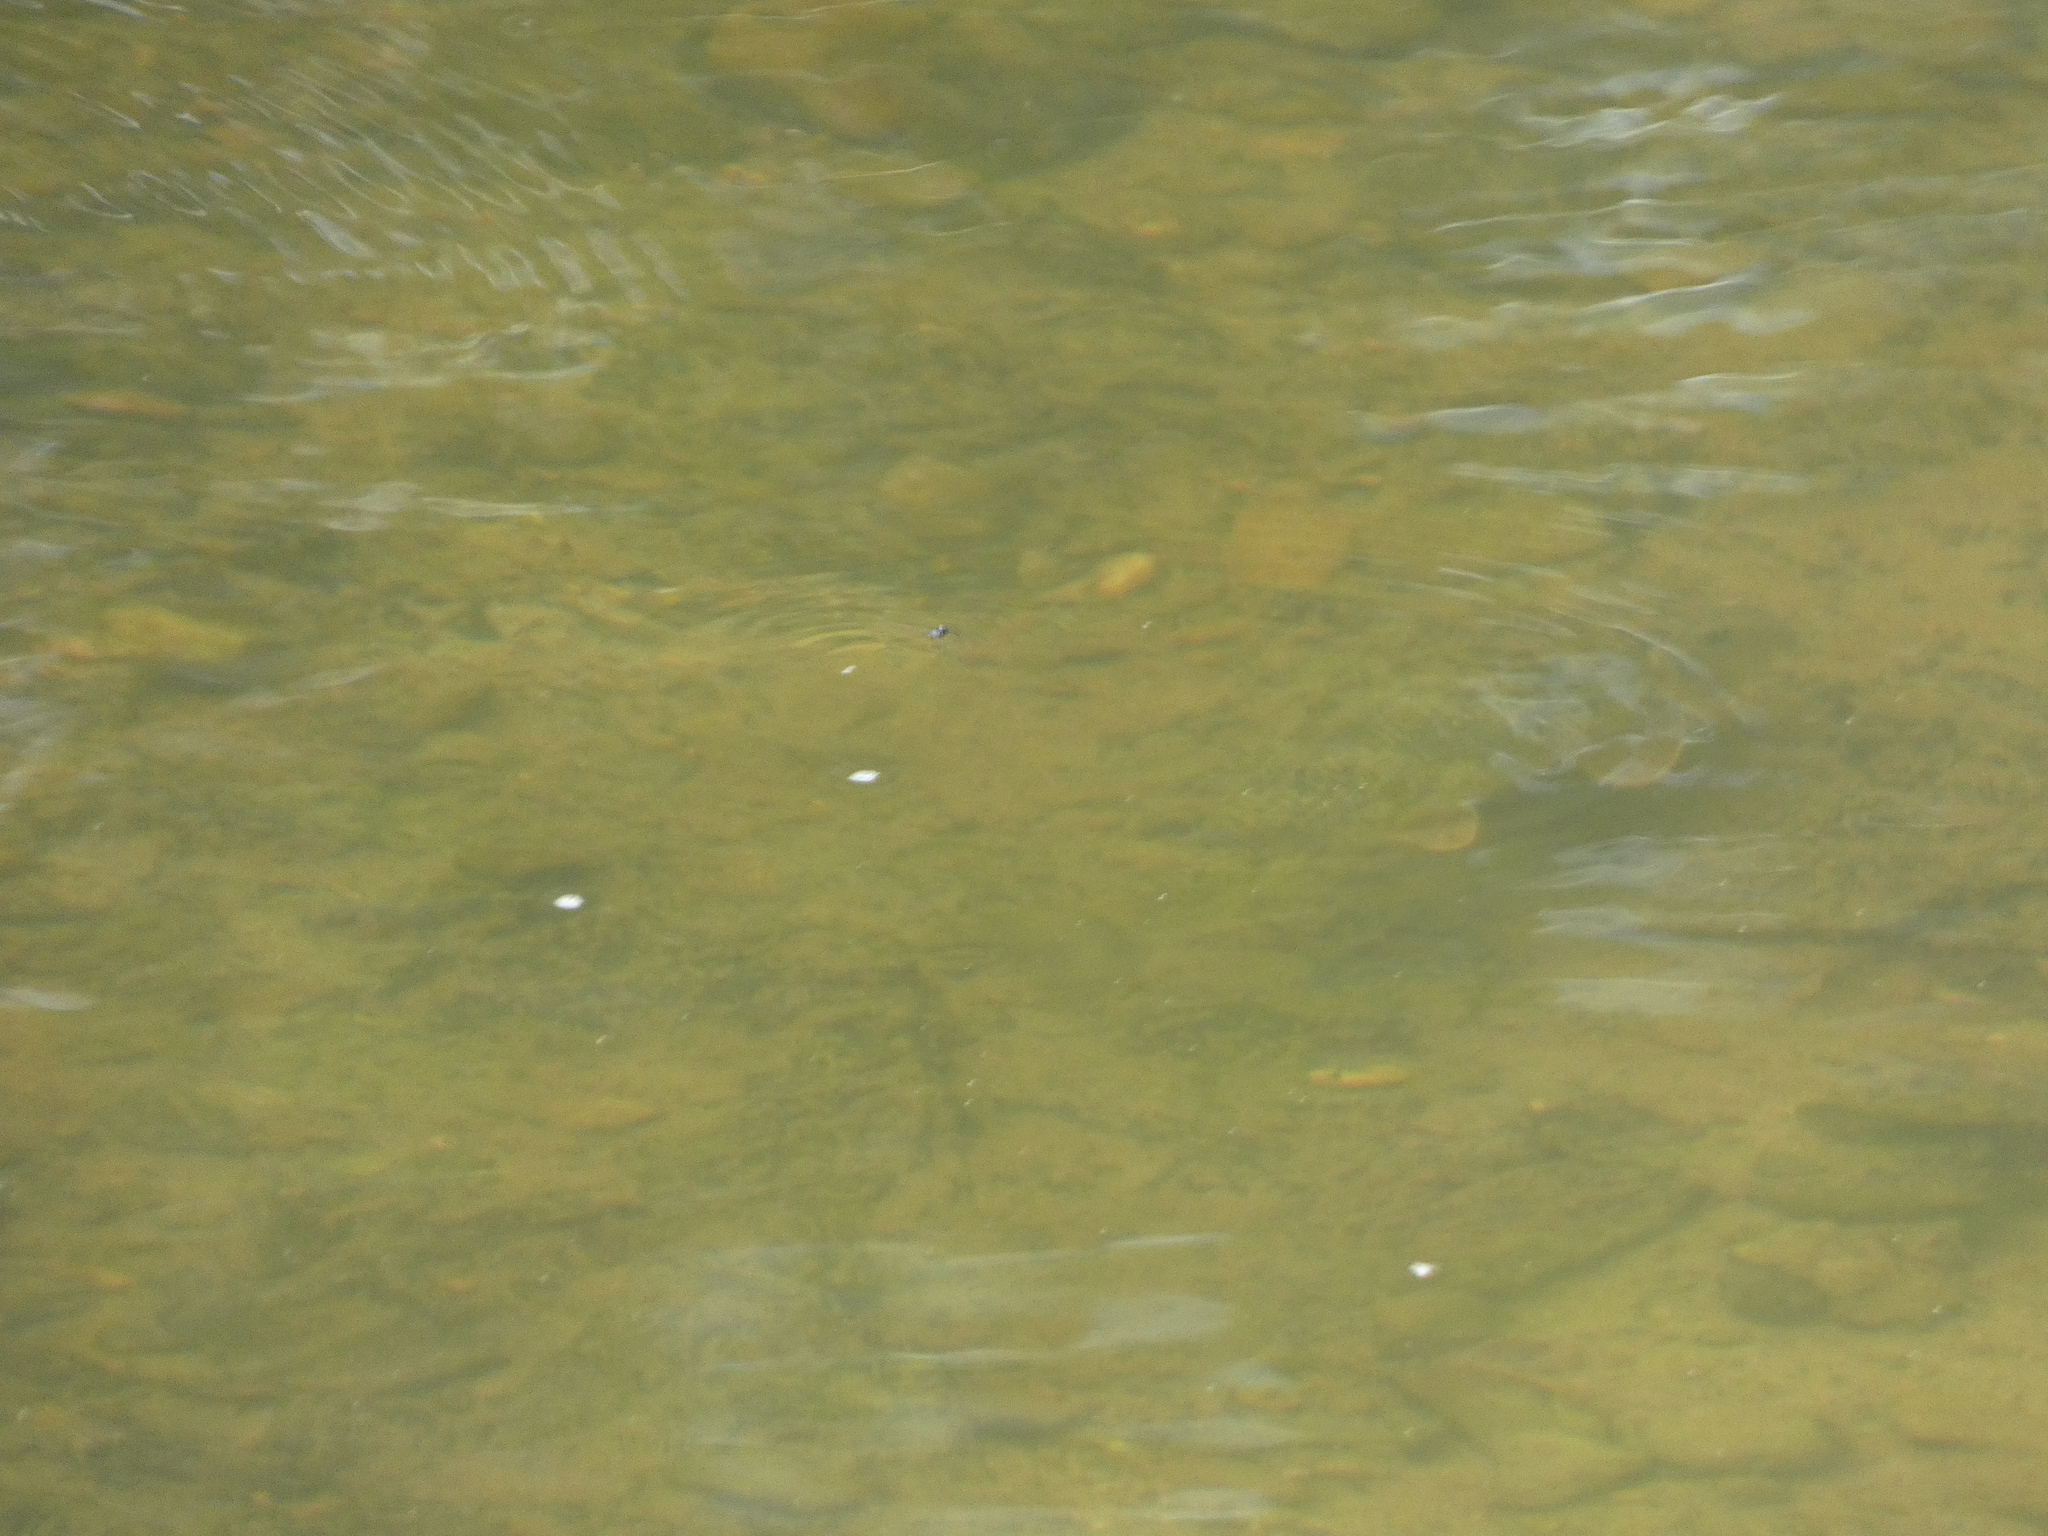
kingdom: Animalia
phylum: Chordata
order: Cypriniformes
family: Catostomidae
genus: Hypentelium
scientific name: Hypentelium nigricans
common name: Northern hog sucker
